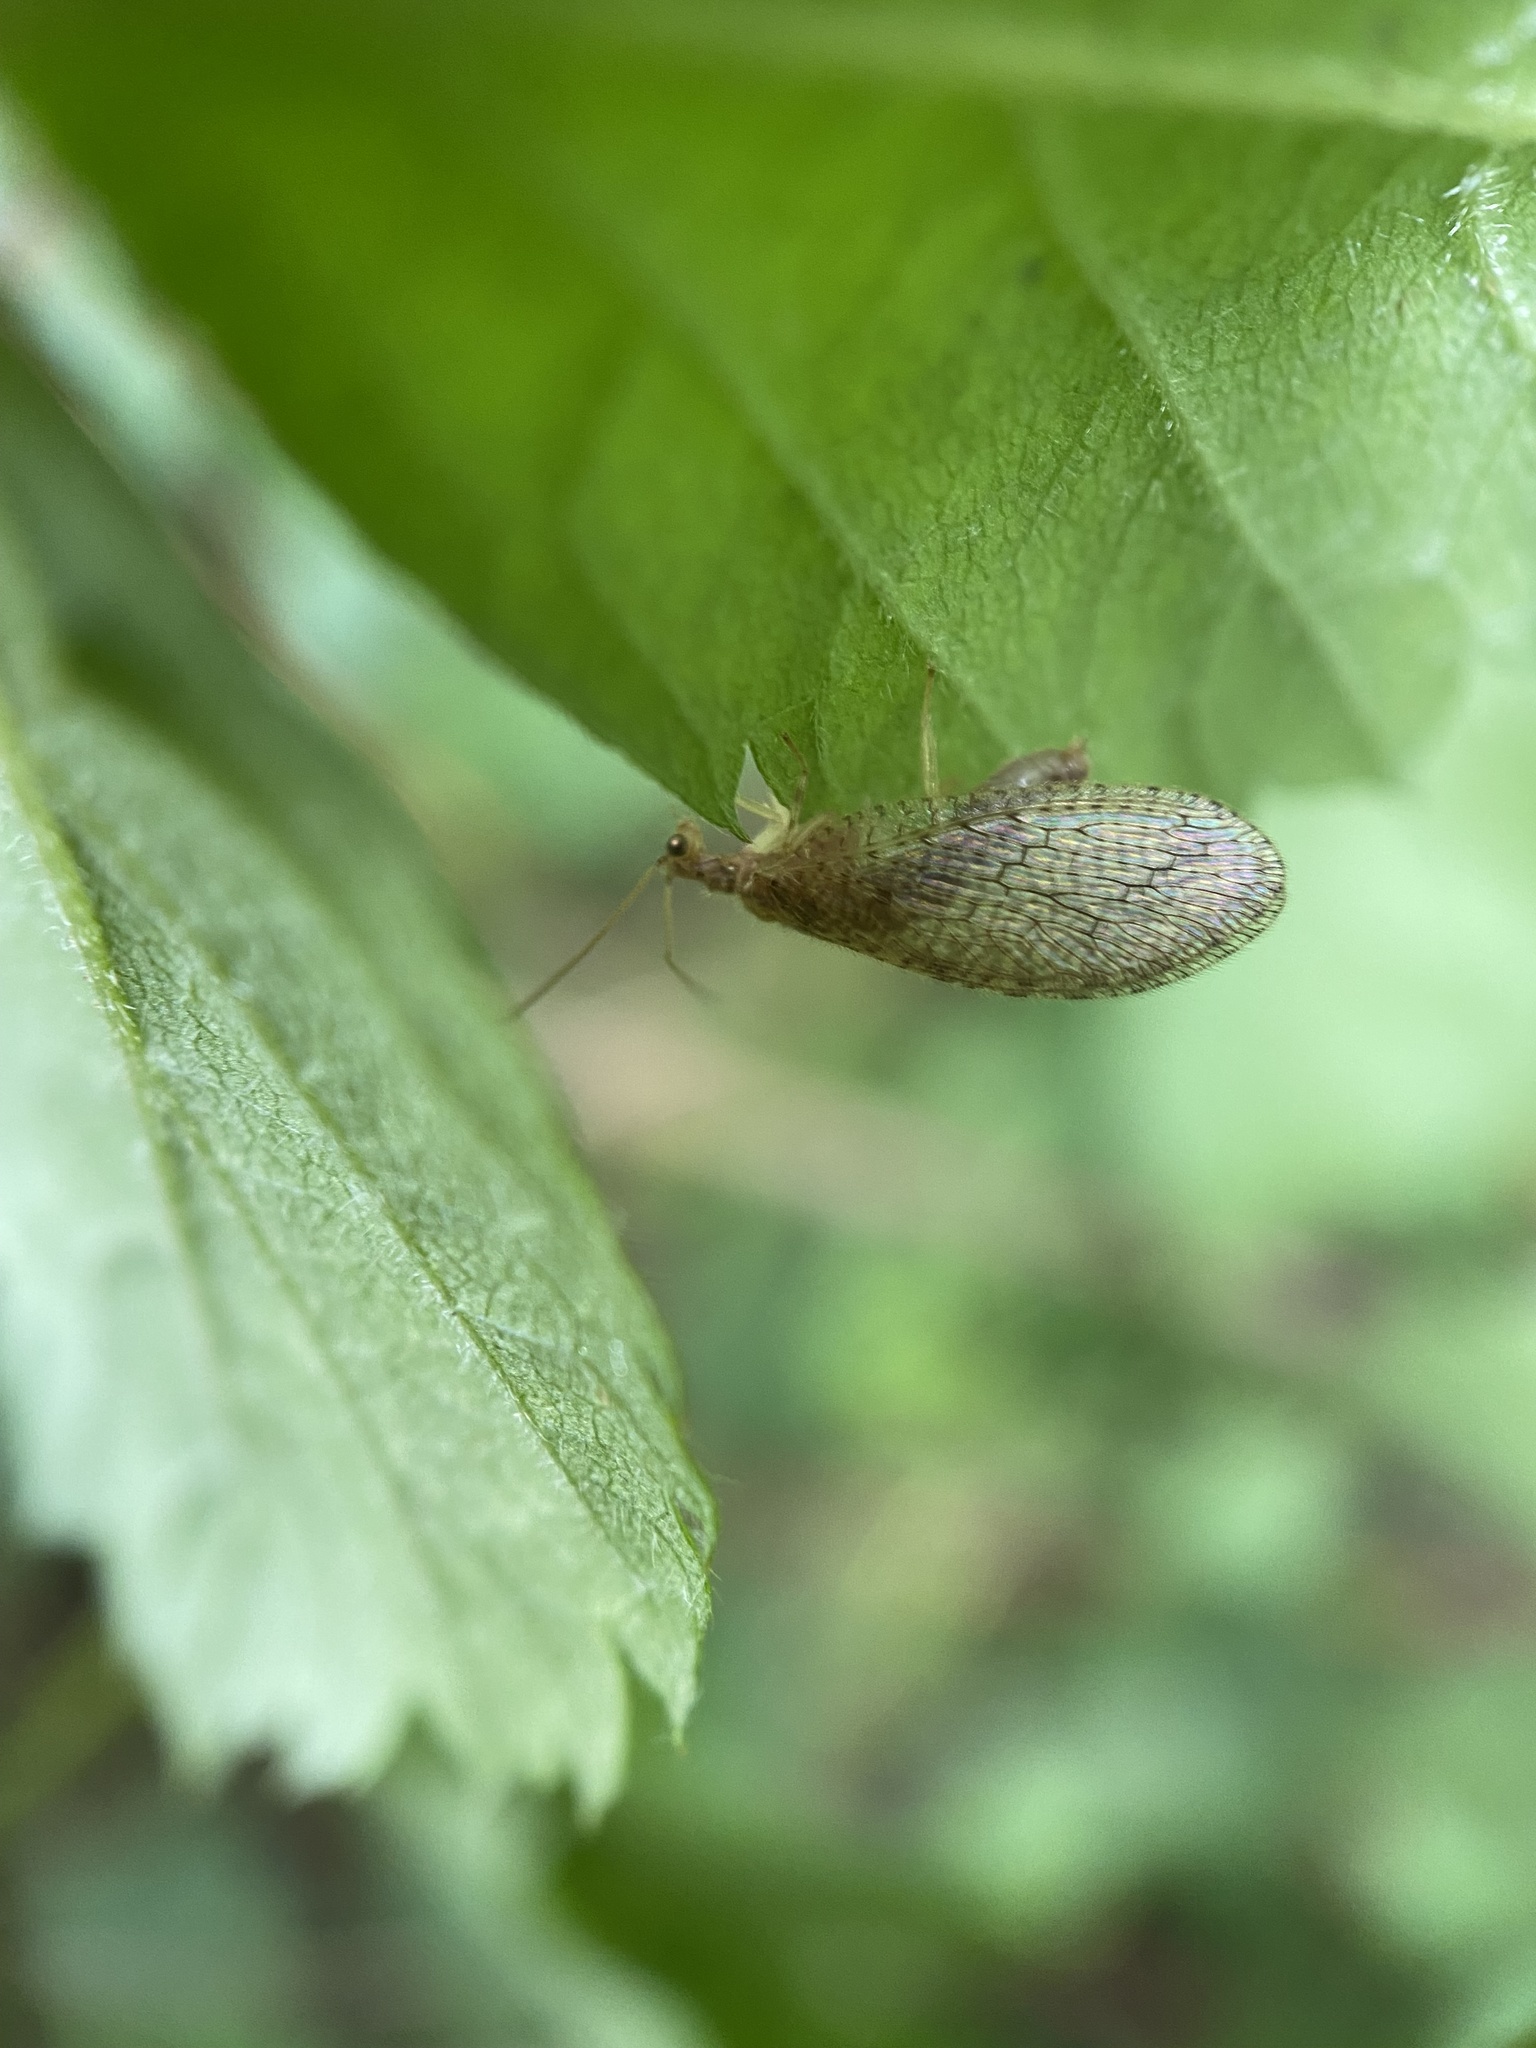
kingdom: Animalia
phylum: Arthropoda
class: Insecta
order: Neuroptera
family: Hemerobiidae
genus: Micromus
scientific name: Micromus posticus
